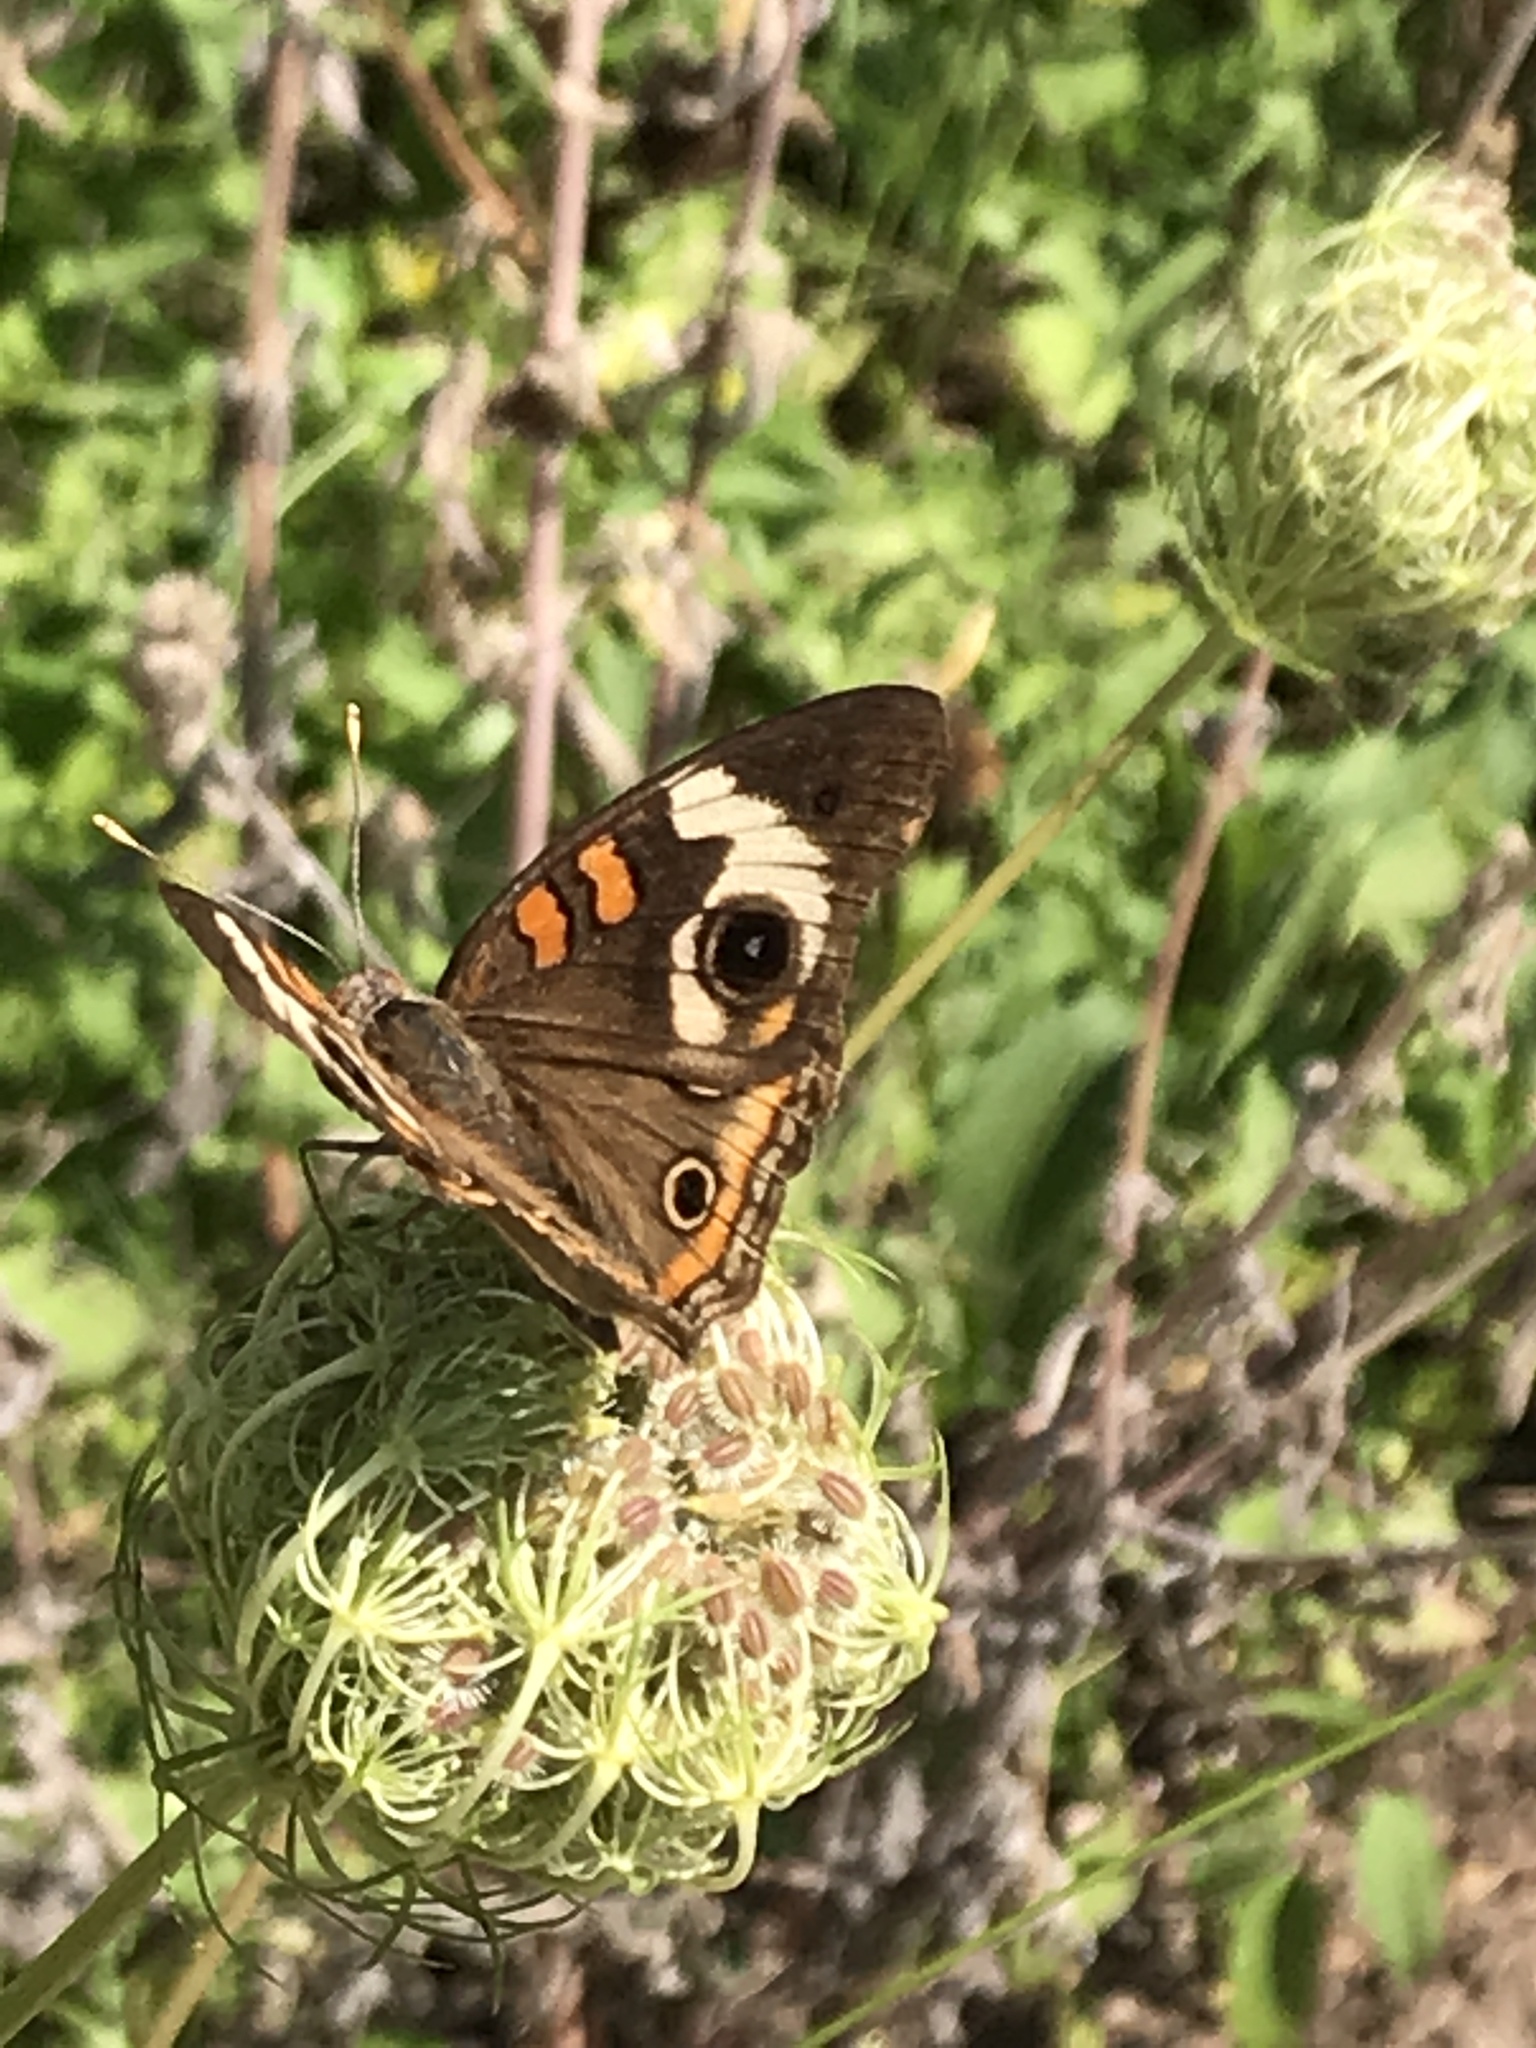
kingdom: Animalia
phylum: Arthropoda
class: Insecta
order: Lepidoptera
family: Nymphalidae
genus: Junonia
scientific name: Junonia coenia
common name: Common buckeye
